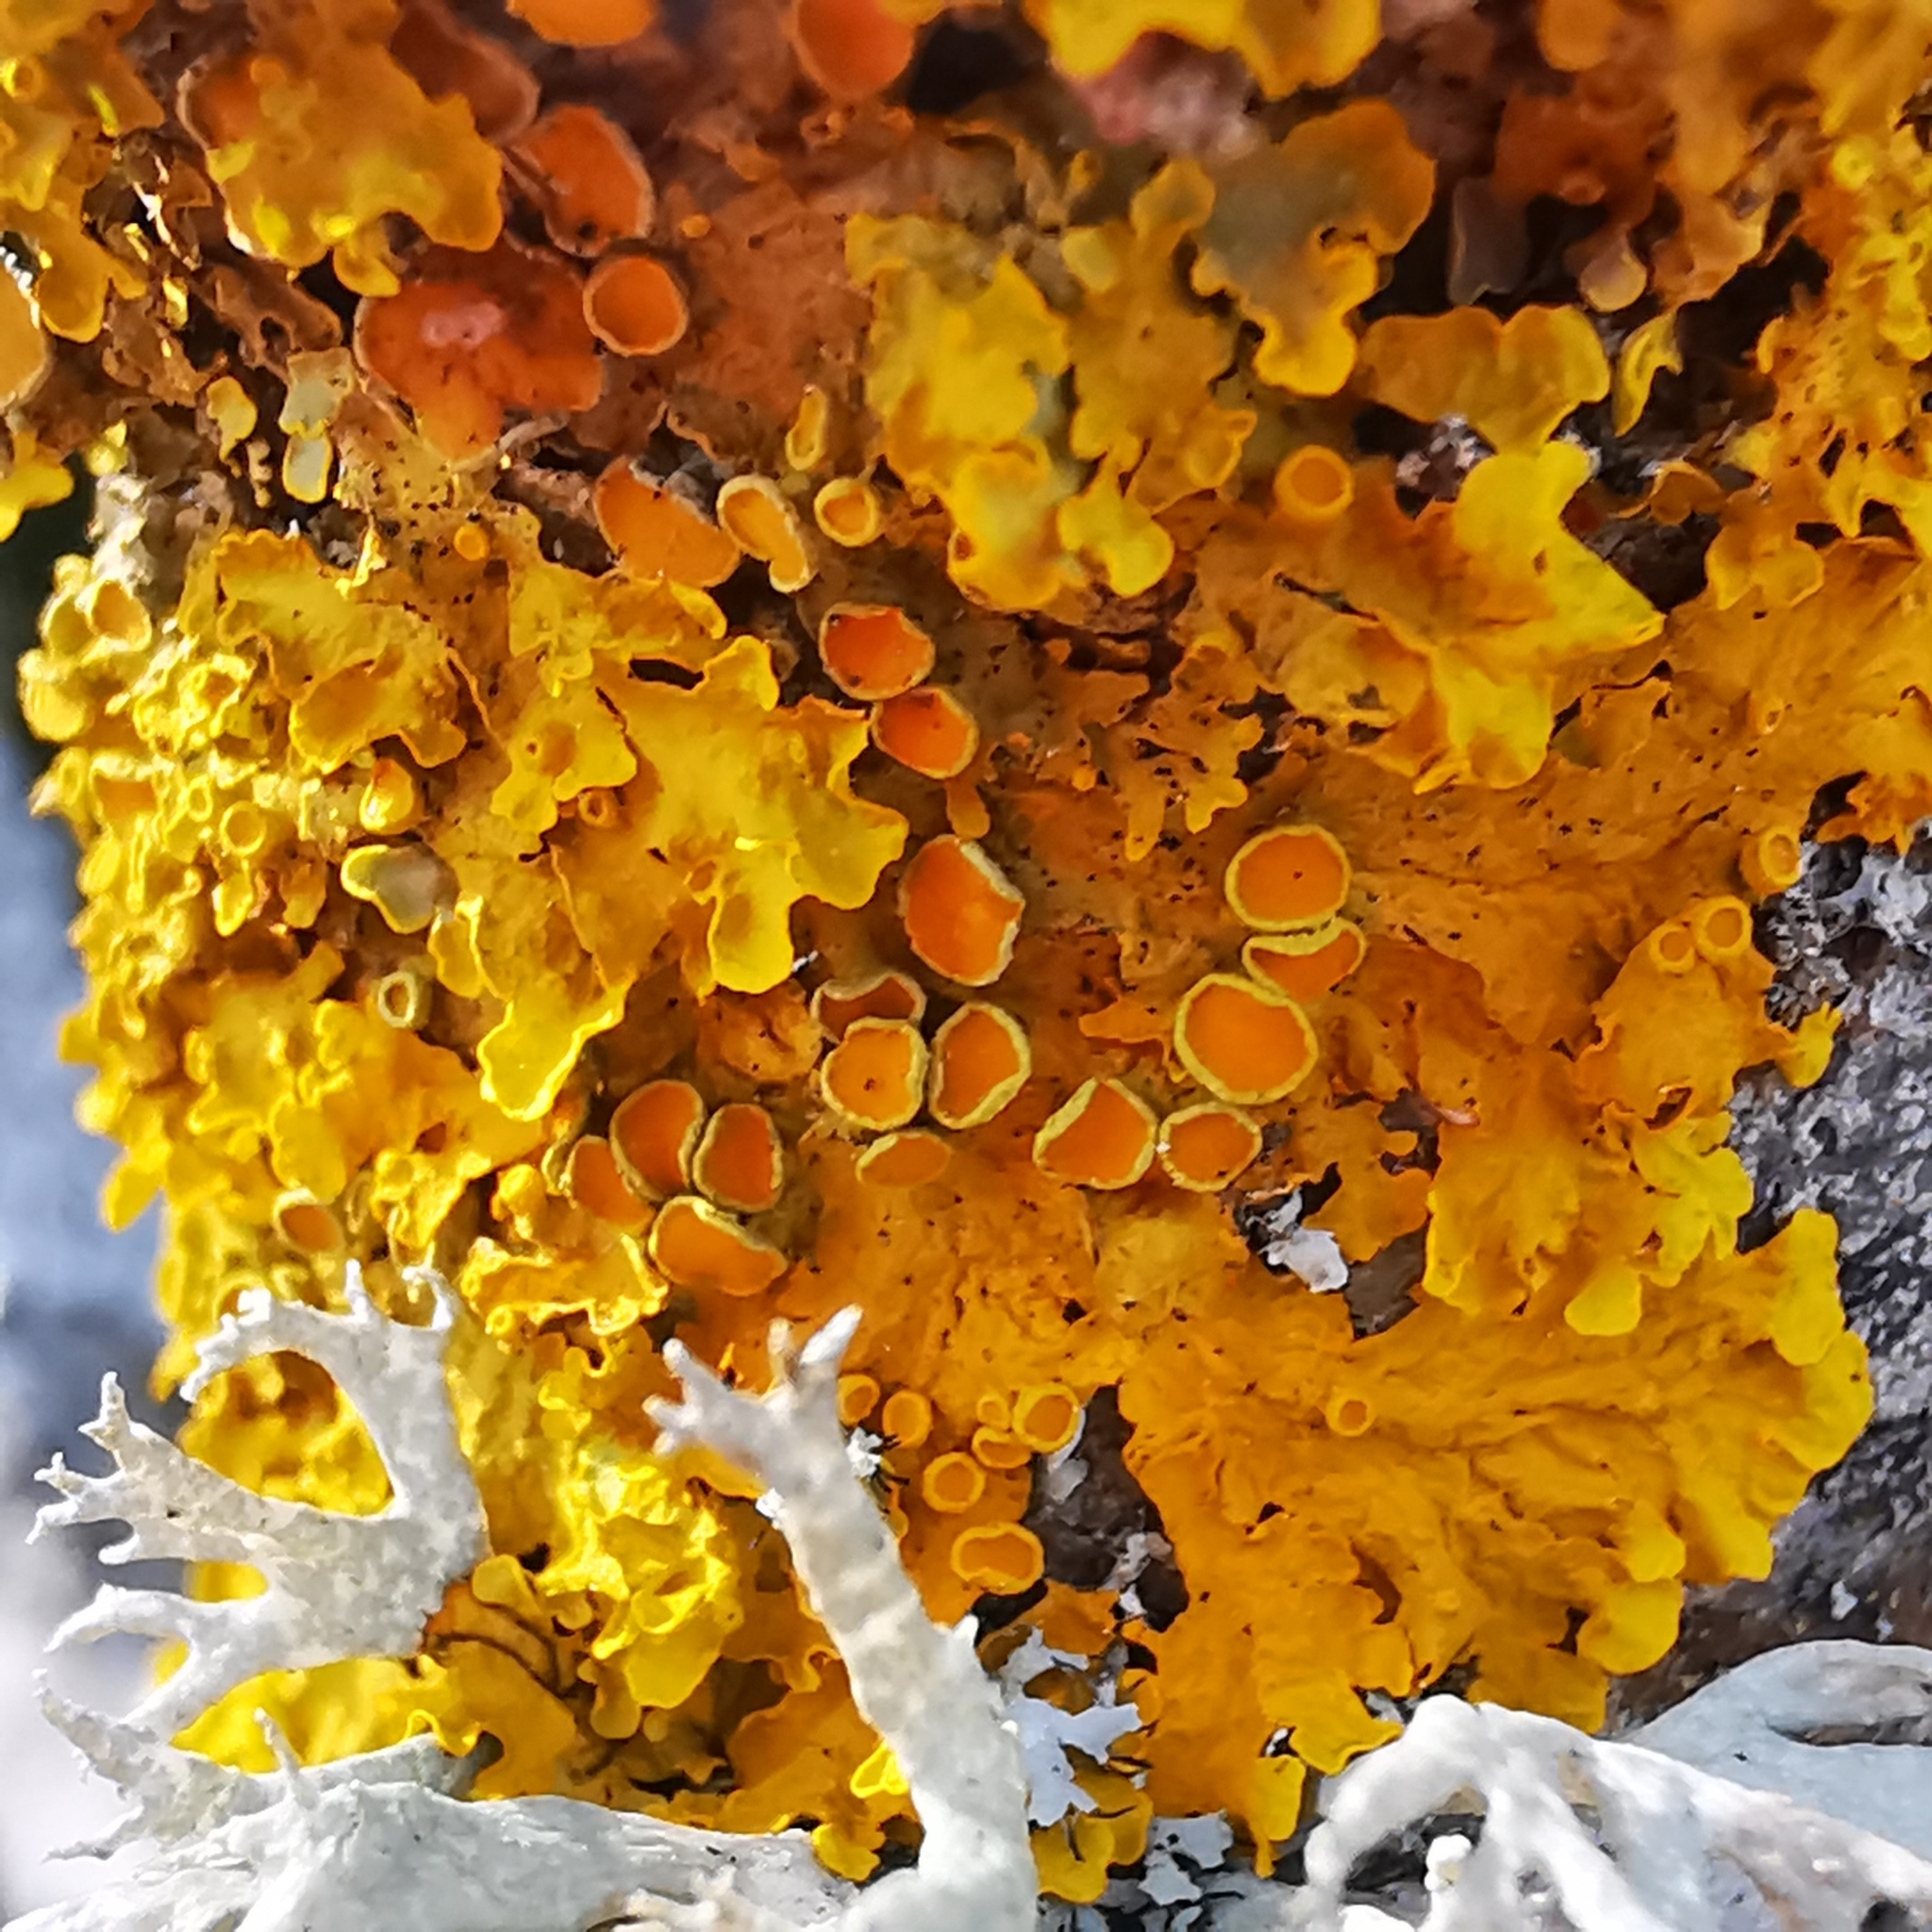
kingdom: Fungi
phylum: Ascomycota
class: Lecanoromycetes
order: Teloschistales
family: Teloschistaceae
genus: Xanthoria
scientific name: Xanthoria parietina
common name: Common orange lichen
